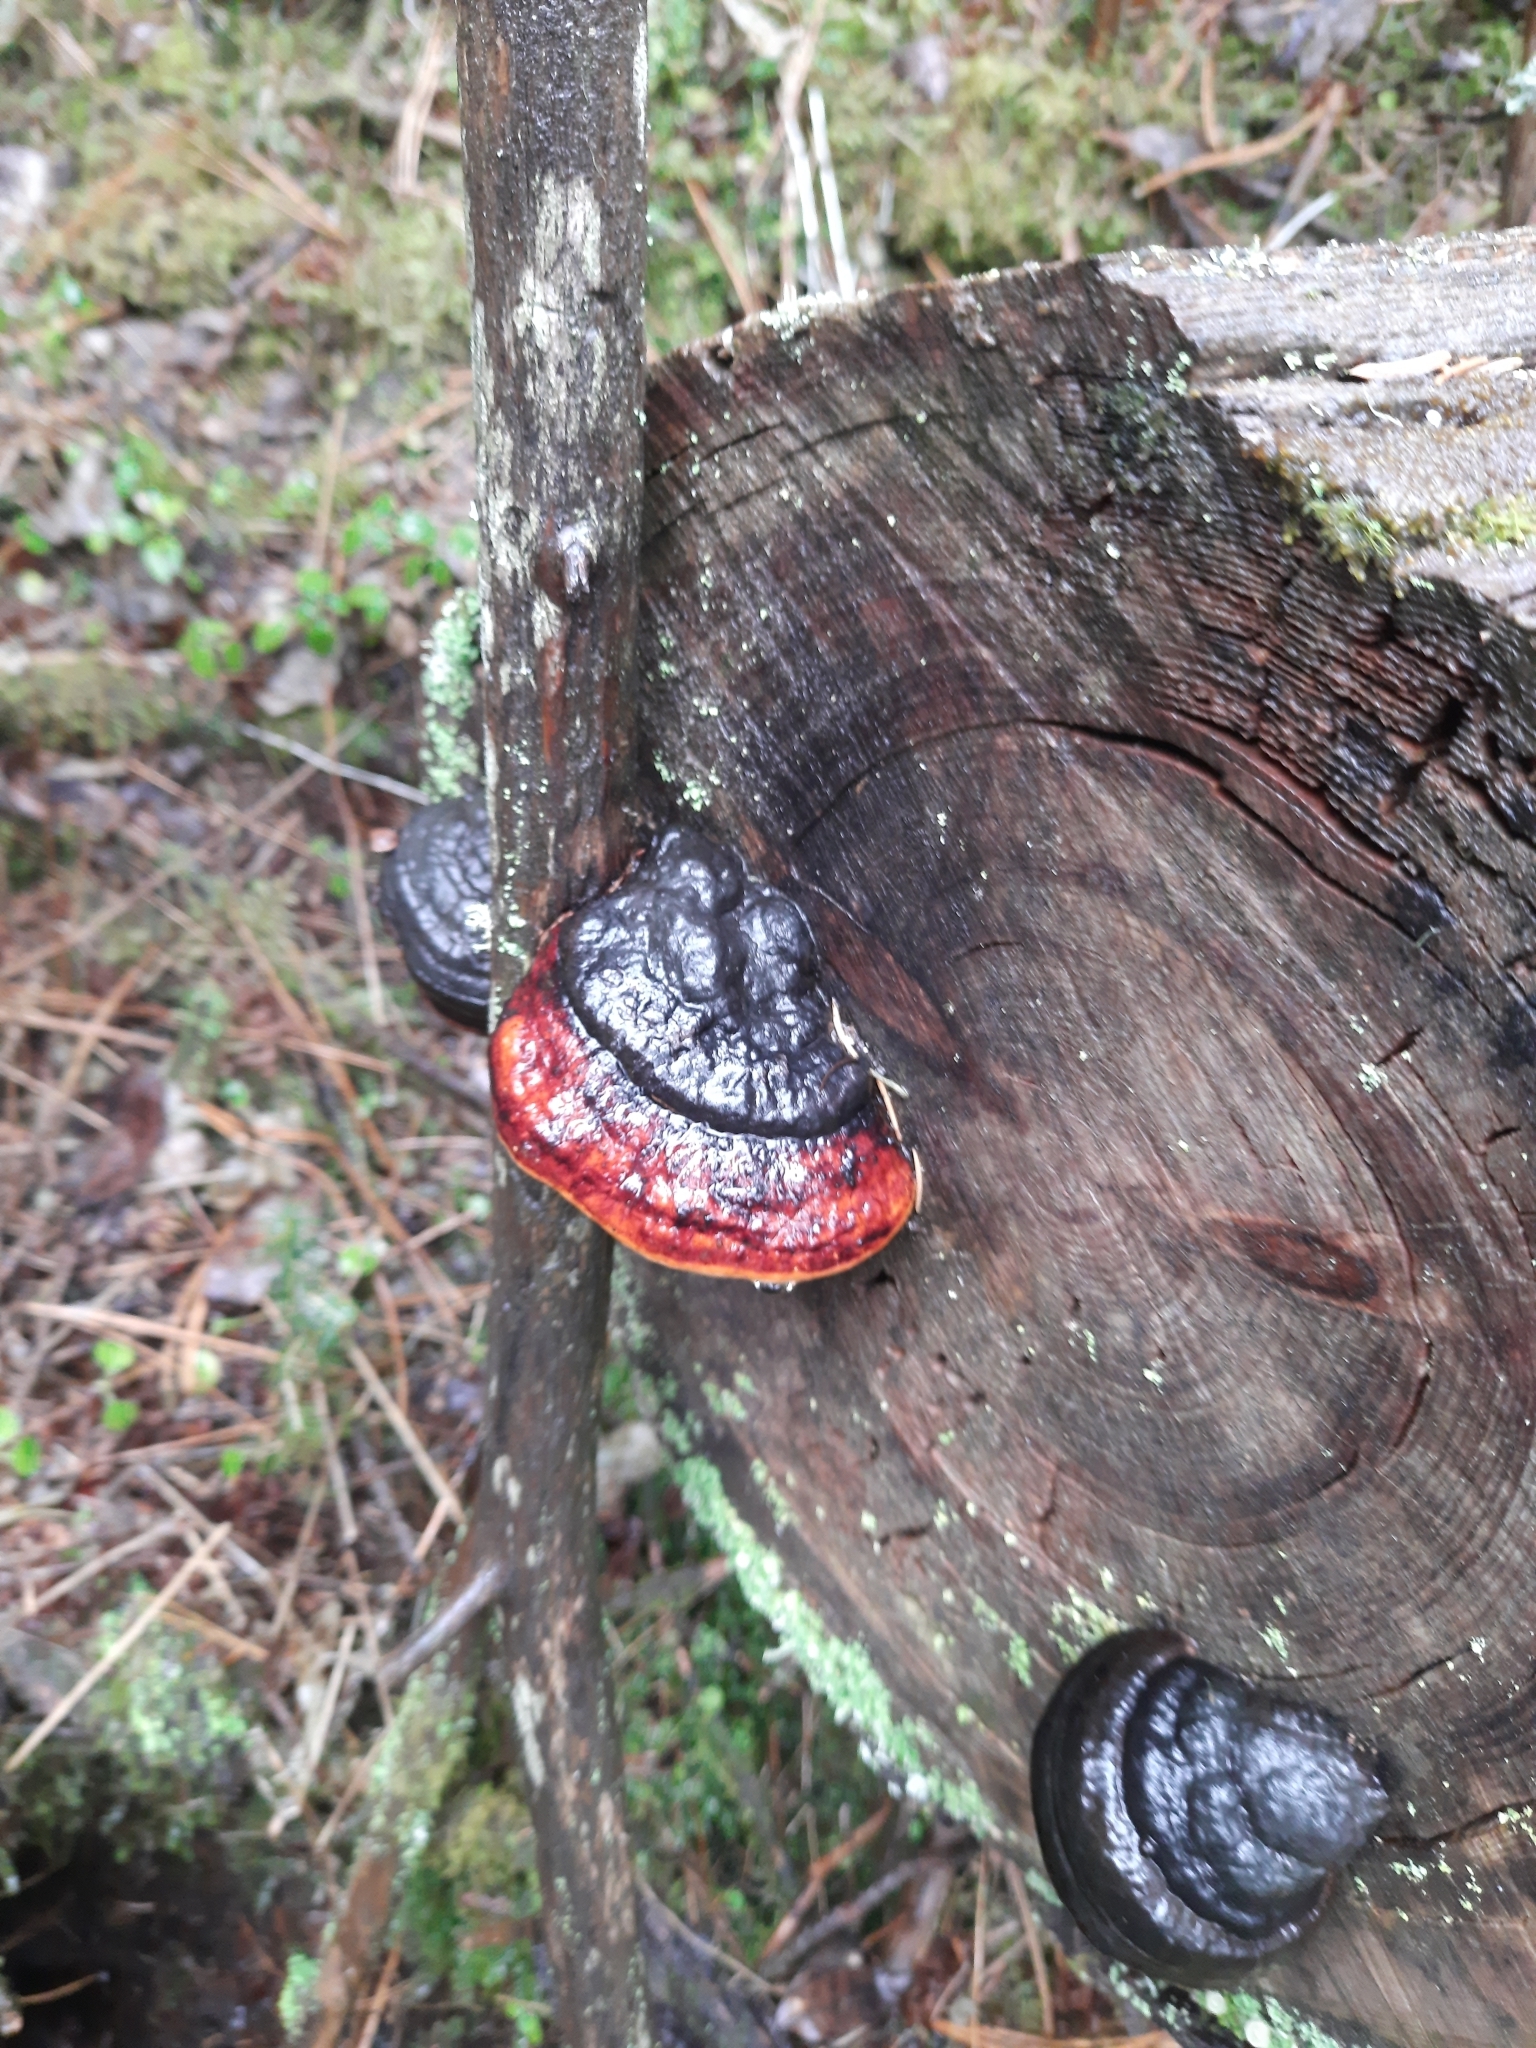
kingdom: Fungi
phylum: Basidiomycota
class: Agaricomycetes
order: Polyporales
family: Fomitopsidaceae
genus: Fomitopsis
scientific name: Fomitopsis pinicola
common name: Red-belted bracket
